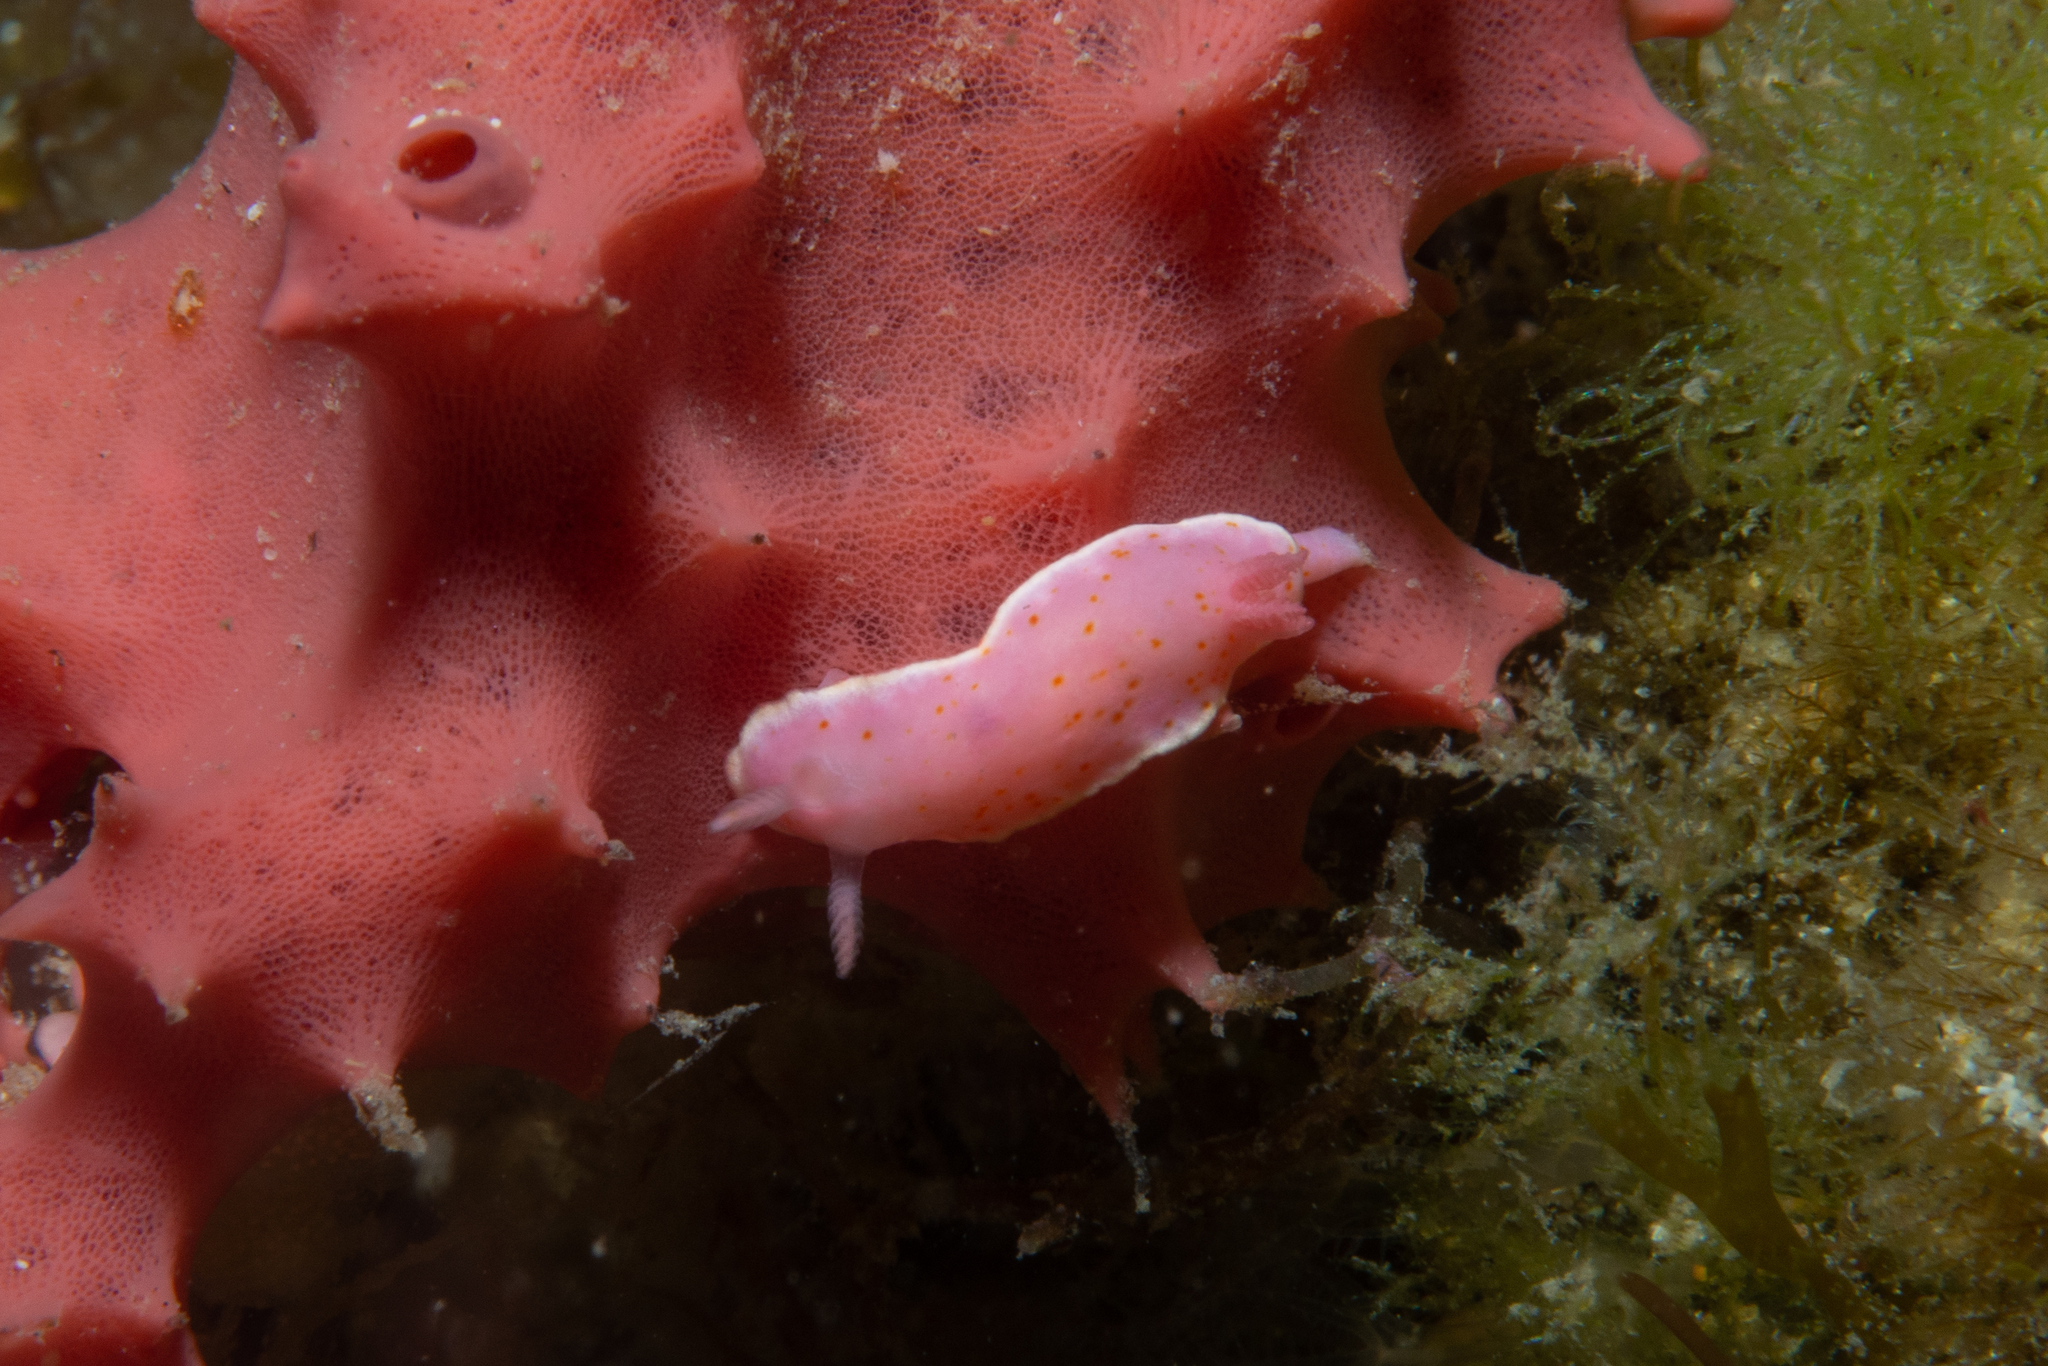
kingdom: Animalia
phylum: Mollusca
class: Gastropoda
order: Nudibranchia
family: Chromodorididae
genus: Verconia
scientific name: Verconia haliclona
